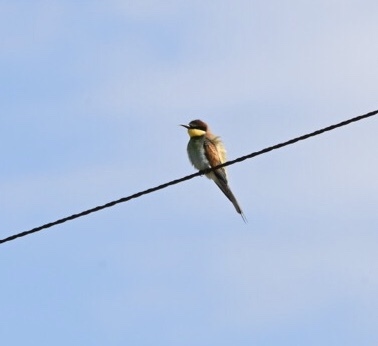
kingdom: Animalia
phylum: Chordata
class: Aves
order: Coraciiformes
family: Meropidae
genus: Merops
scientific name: Merops apiaster
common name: European bee-eater
